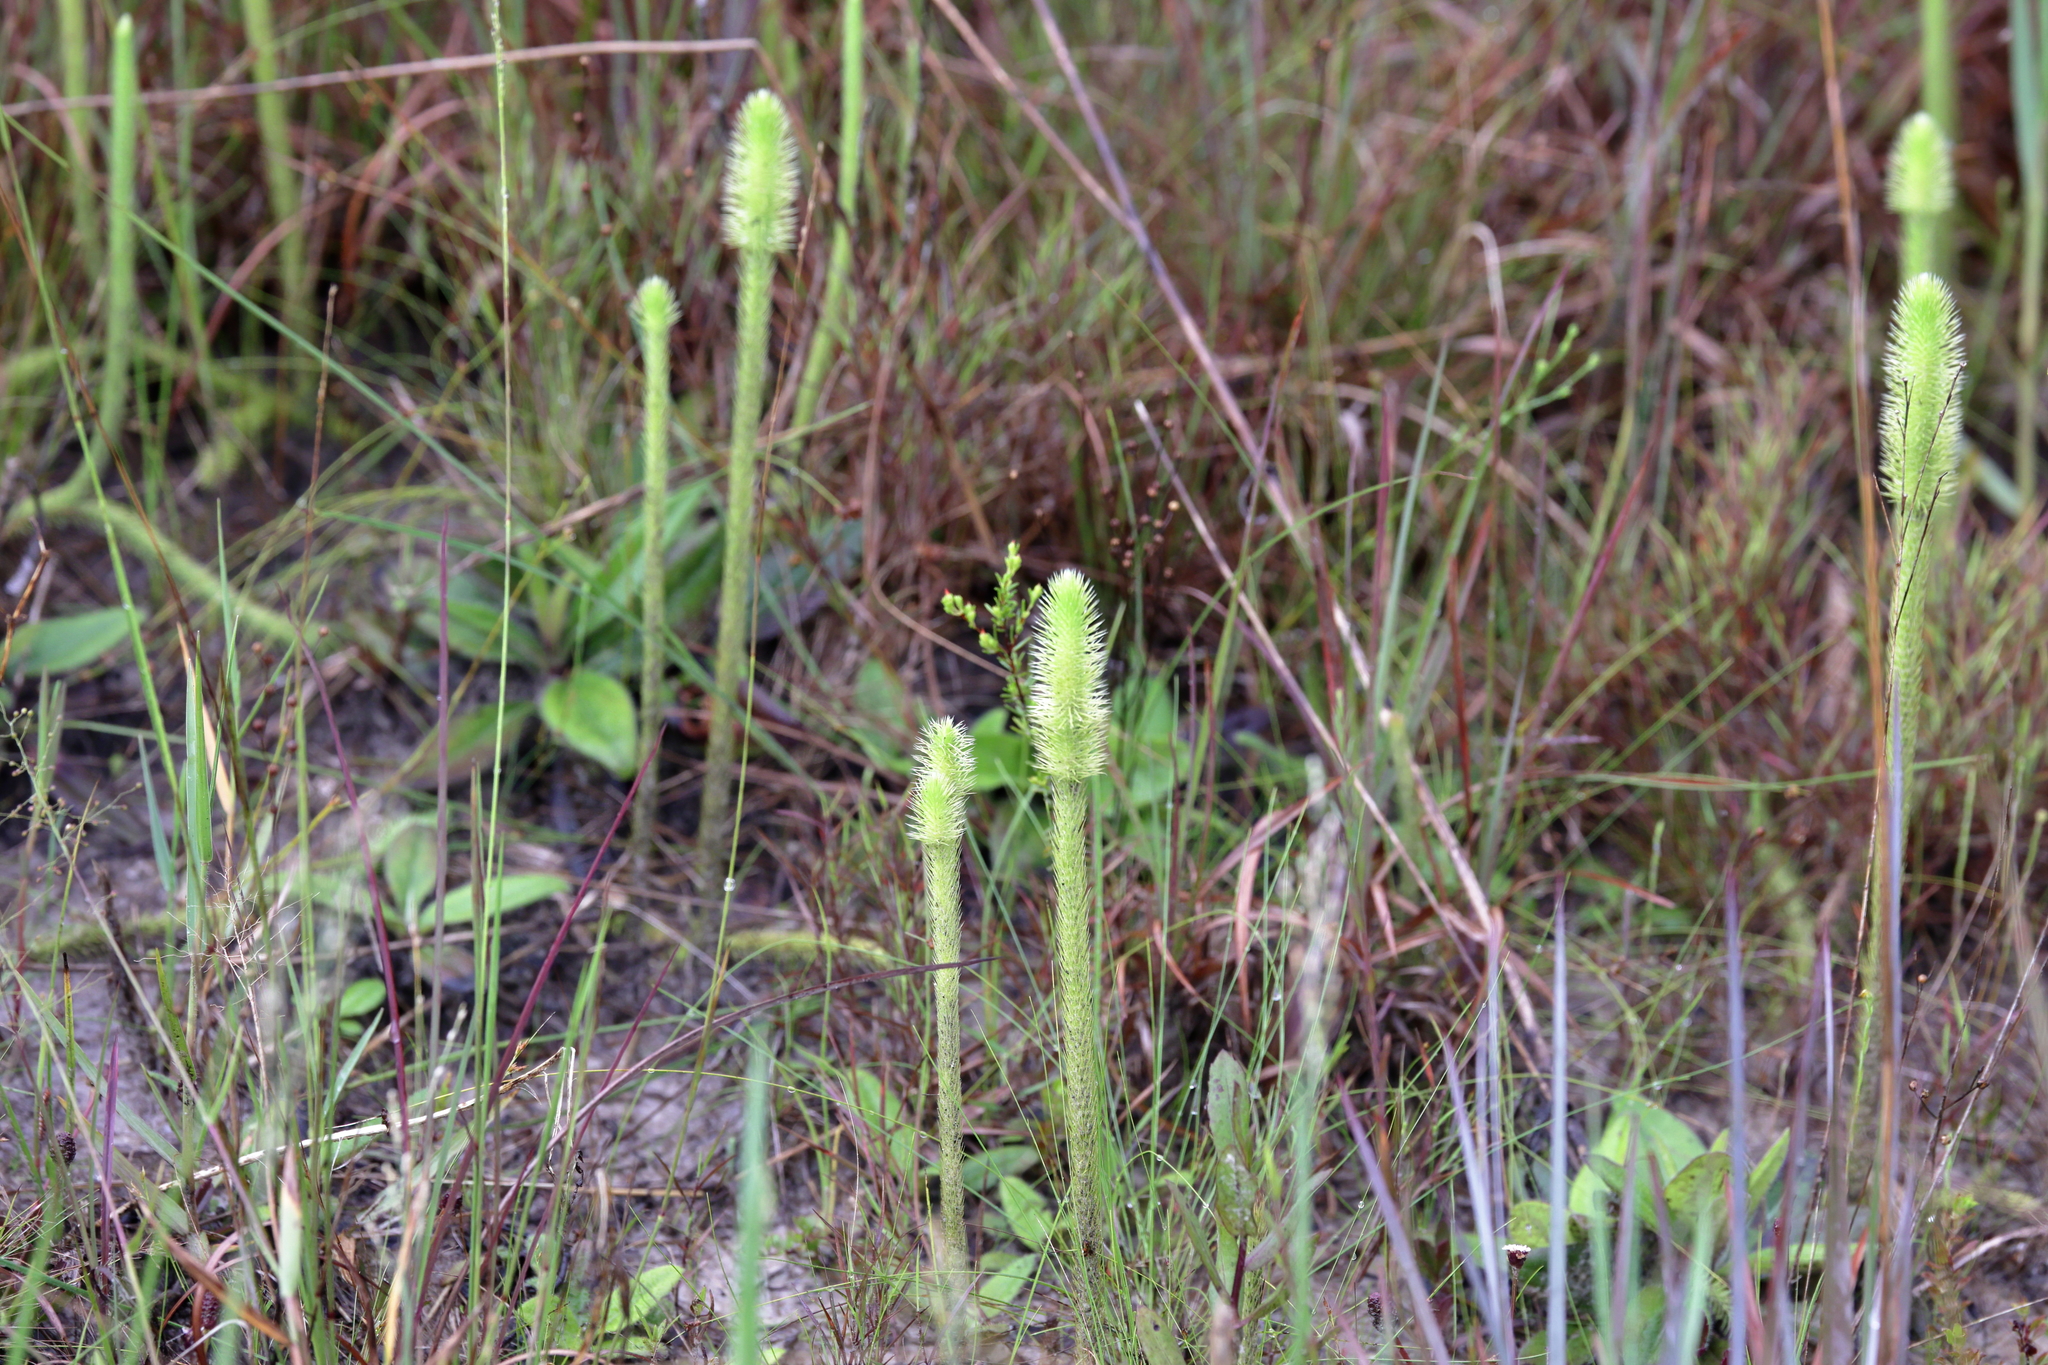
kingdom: Plantae
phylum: Tracheophyta
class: Lycopodiopsida
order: Lycopodiales
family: Lycopodiaceae
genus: Lycopodiella
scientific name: Lycopodiella alopecuroides
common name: Foxtail clubmoss
